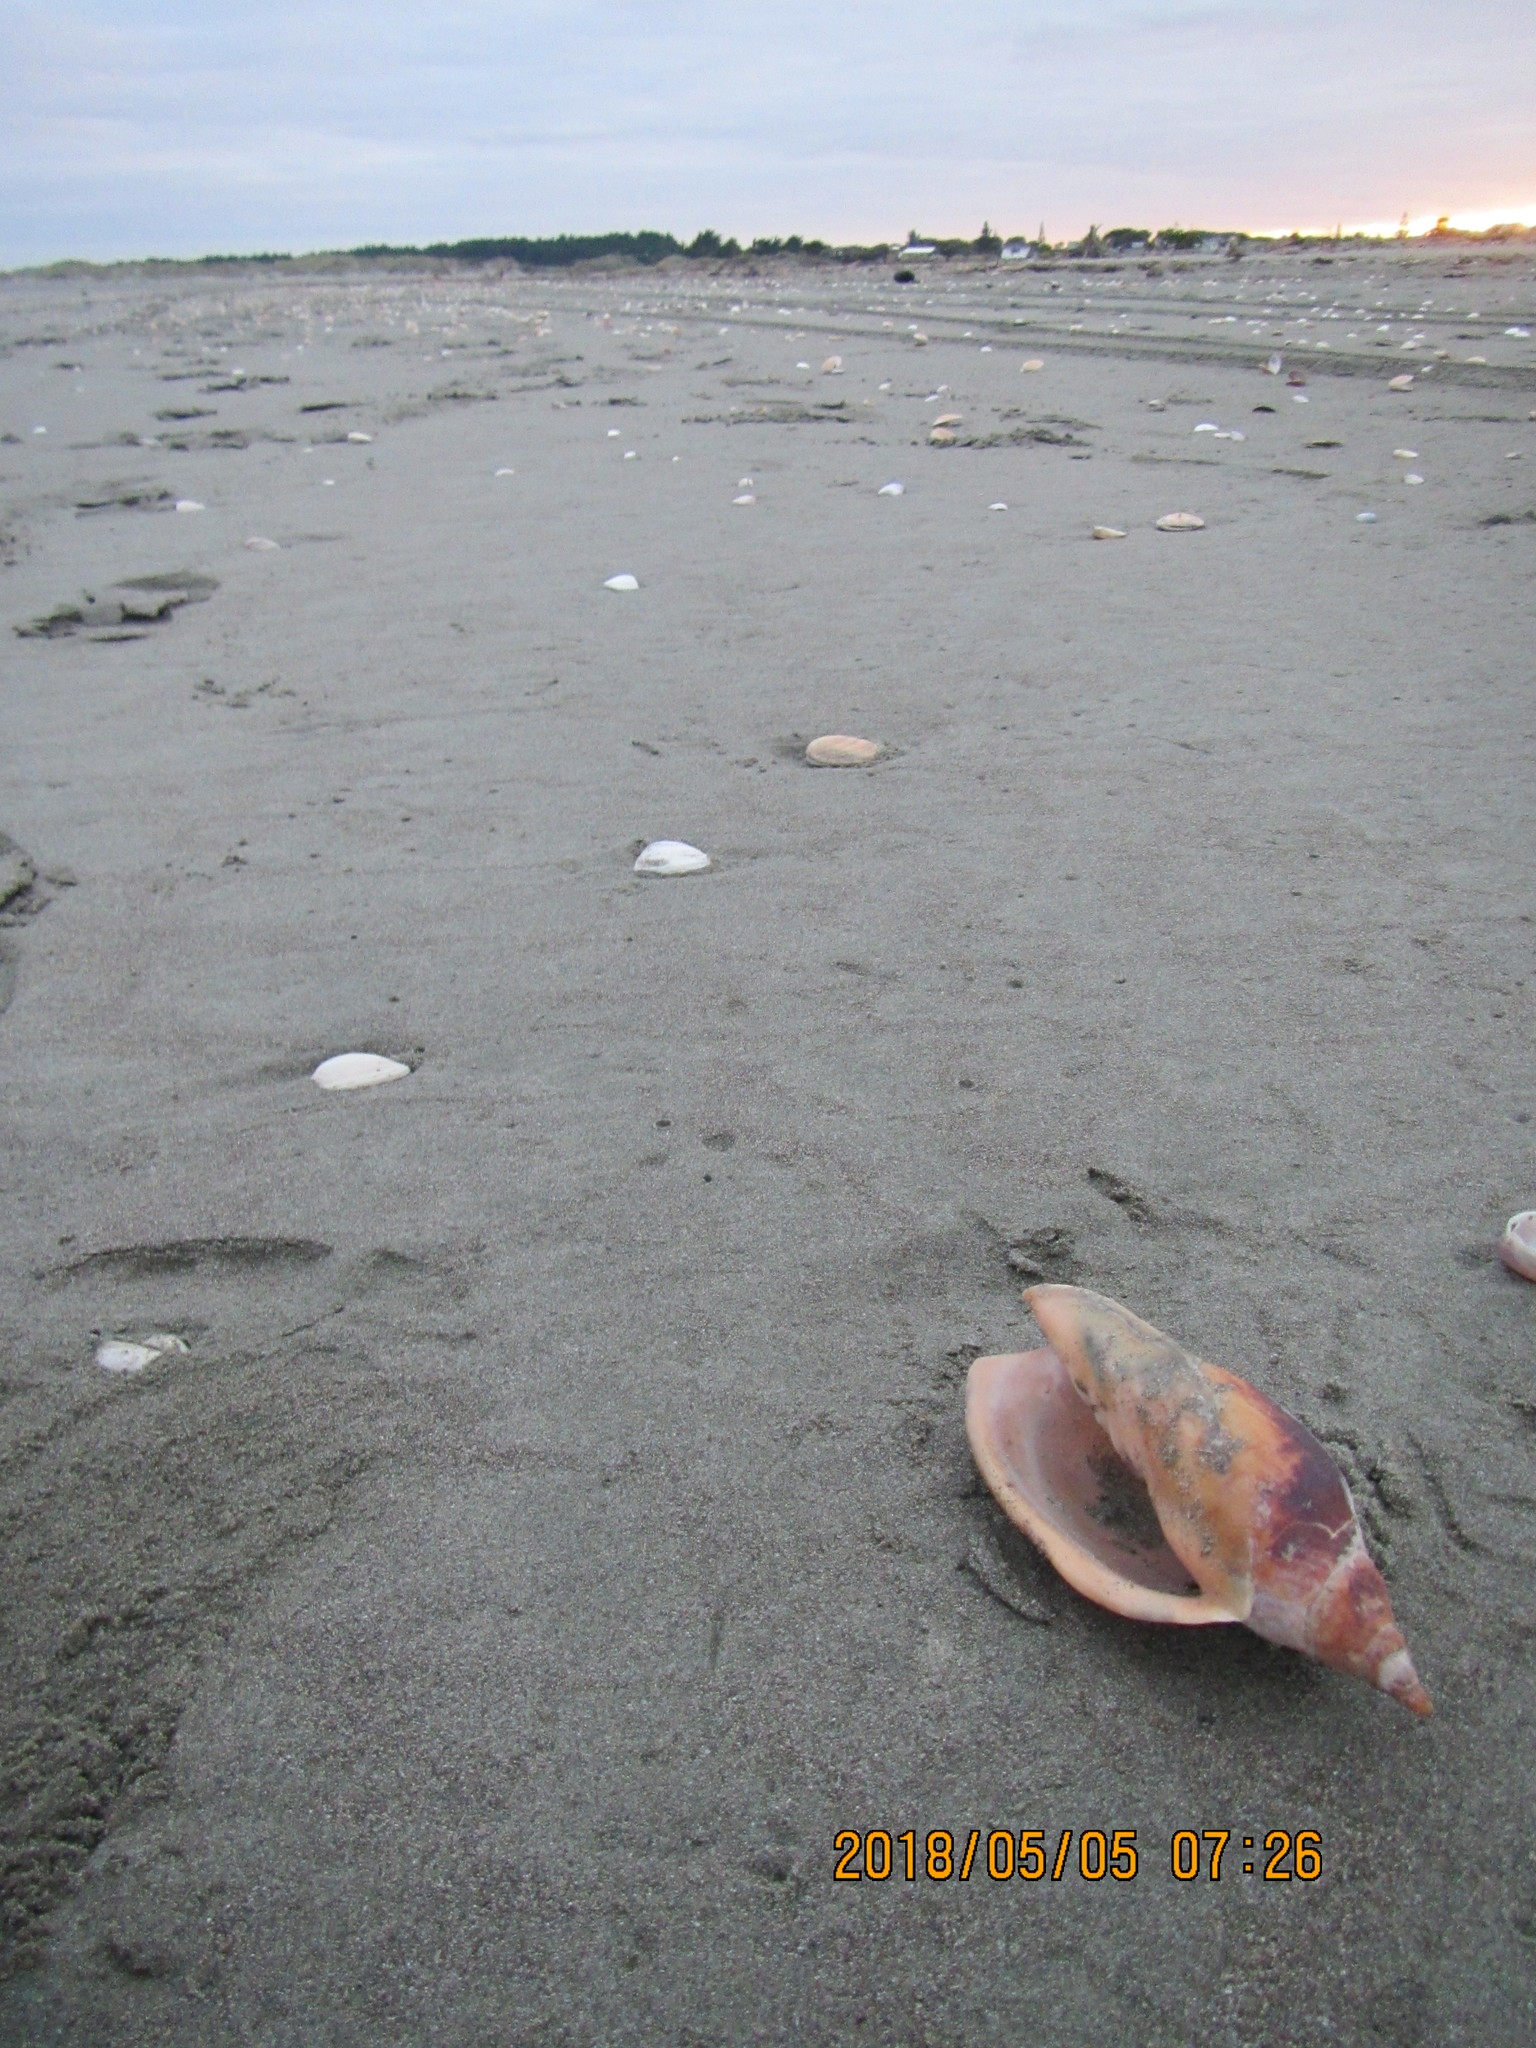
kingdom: Animalia
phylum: Mollusca
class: Gastropoda
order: Neogastropoda
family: Volutidae
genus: Alcithoe
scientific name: Alcithoe arabica
